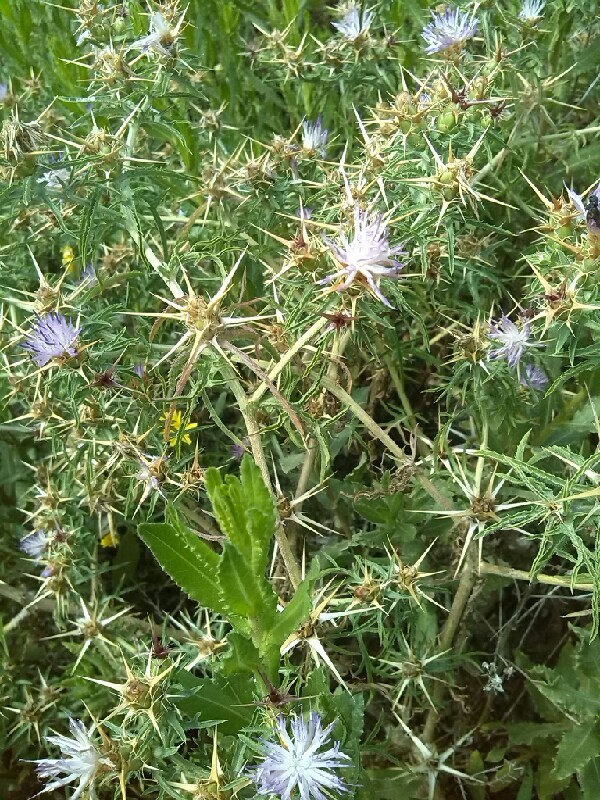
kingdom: Plantae
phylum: Tracheophyta
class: Magnoliopsida
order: Asterales
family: Asteraceae
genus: Centaurea
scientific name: Centaurea calcitrapa
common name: Red star-thistle
